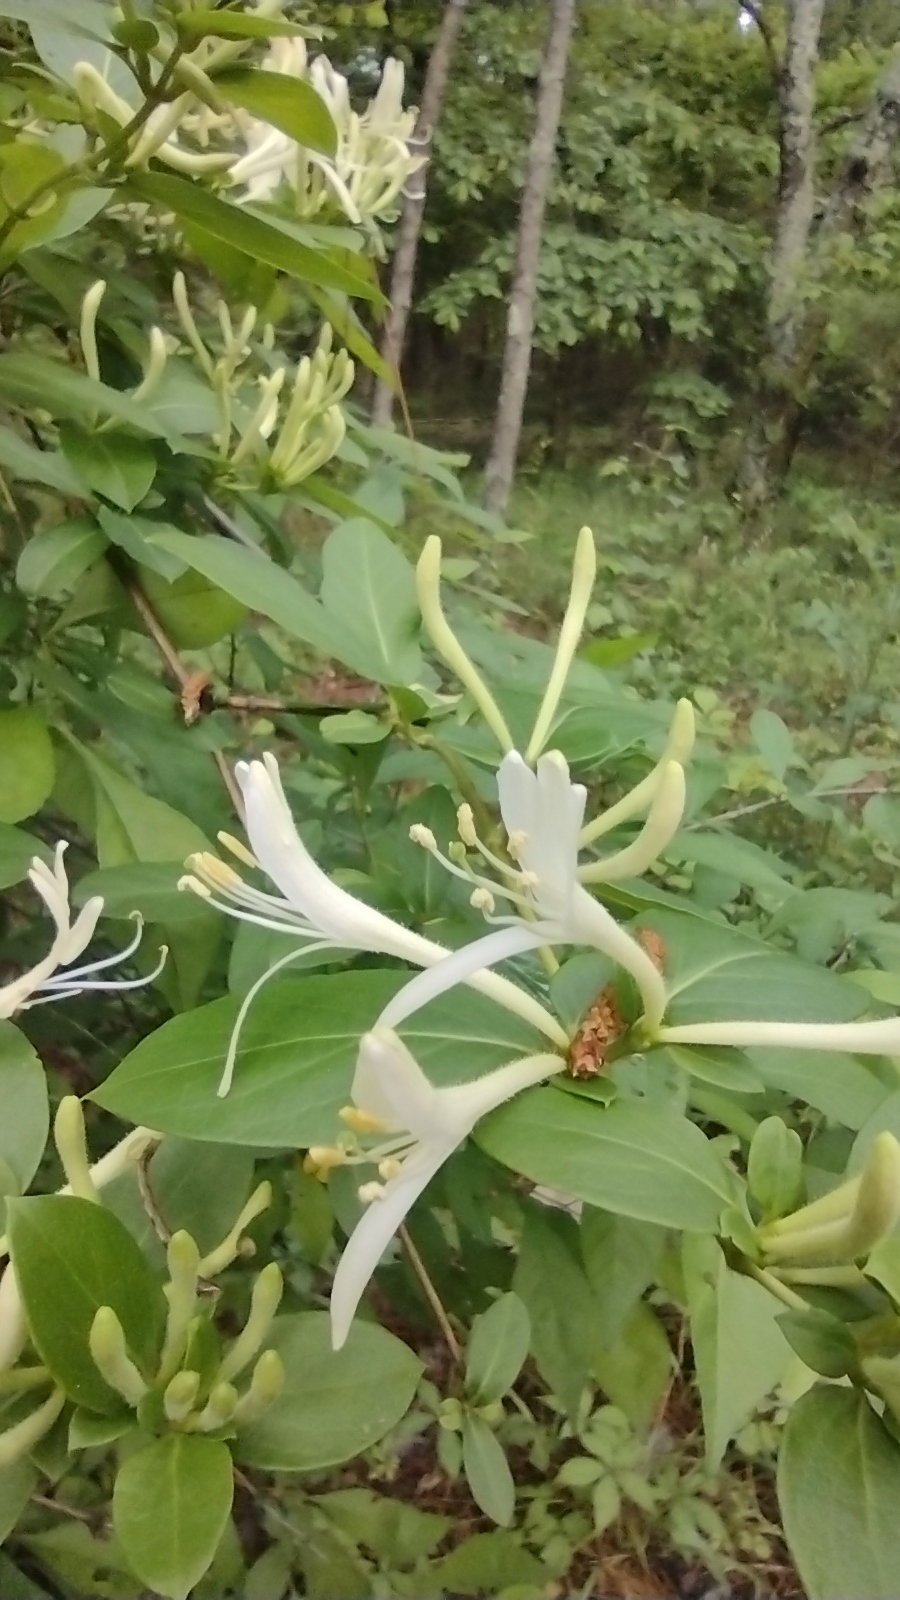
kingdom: Plantae
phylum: Tracheophyta
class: Magnoliopsida
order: Dipsacales
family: Caprifoliaceae
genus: Lonicera
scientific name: Lonicera japonica
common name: Japanese honeysuckle
